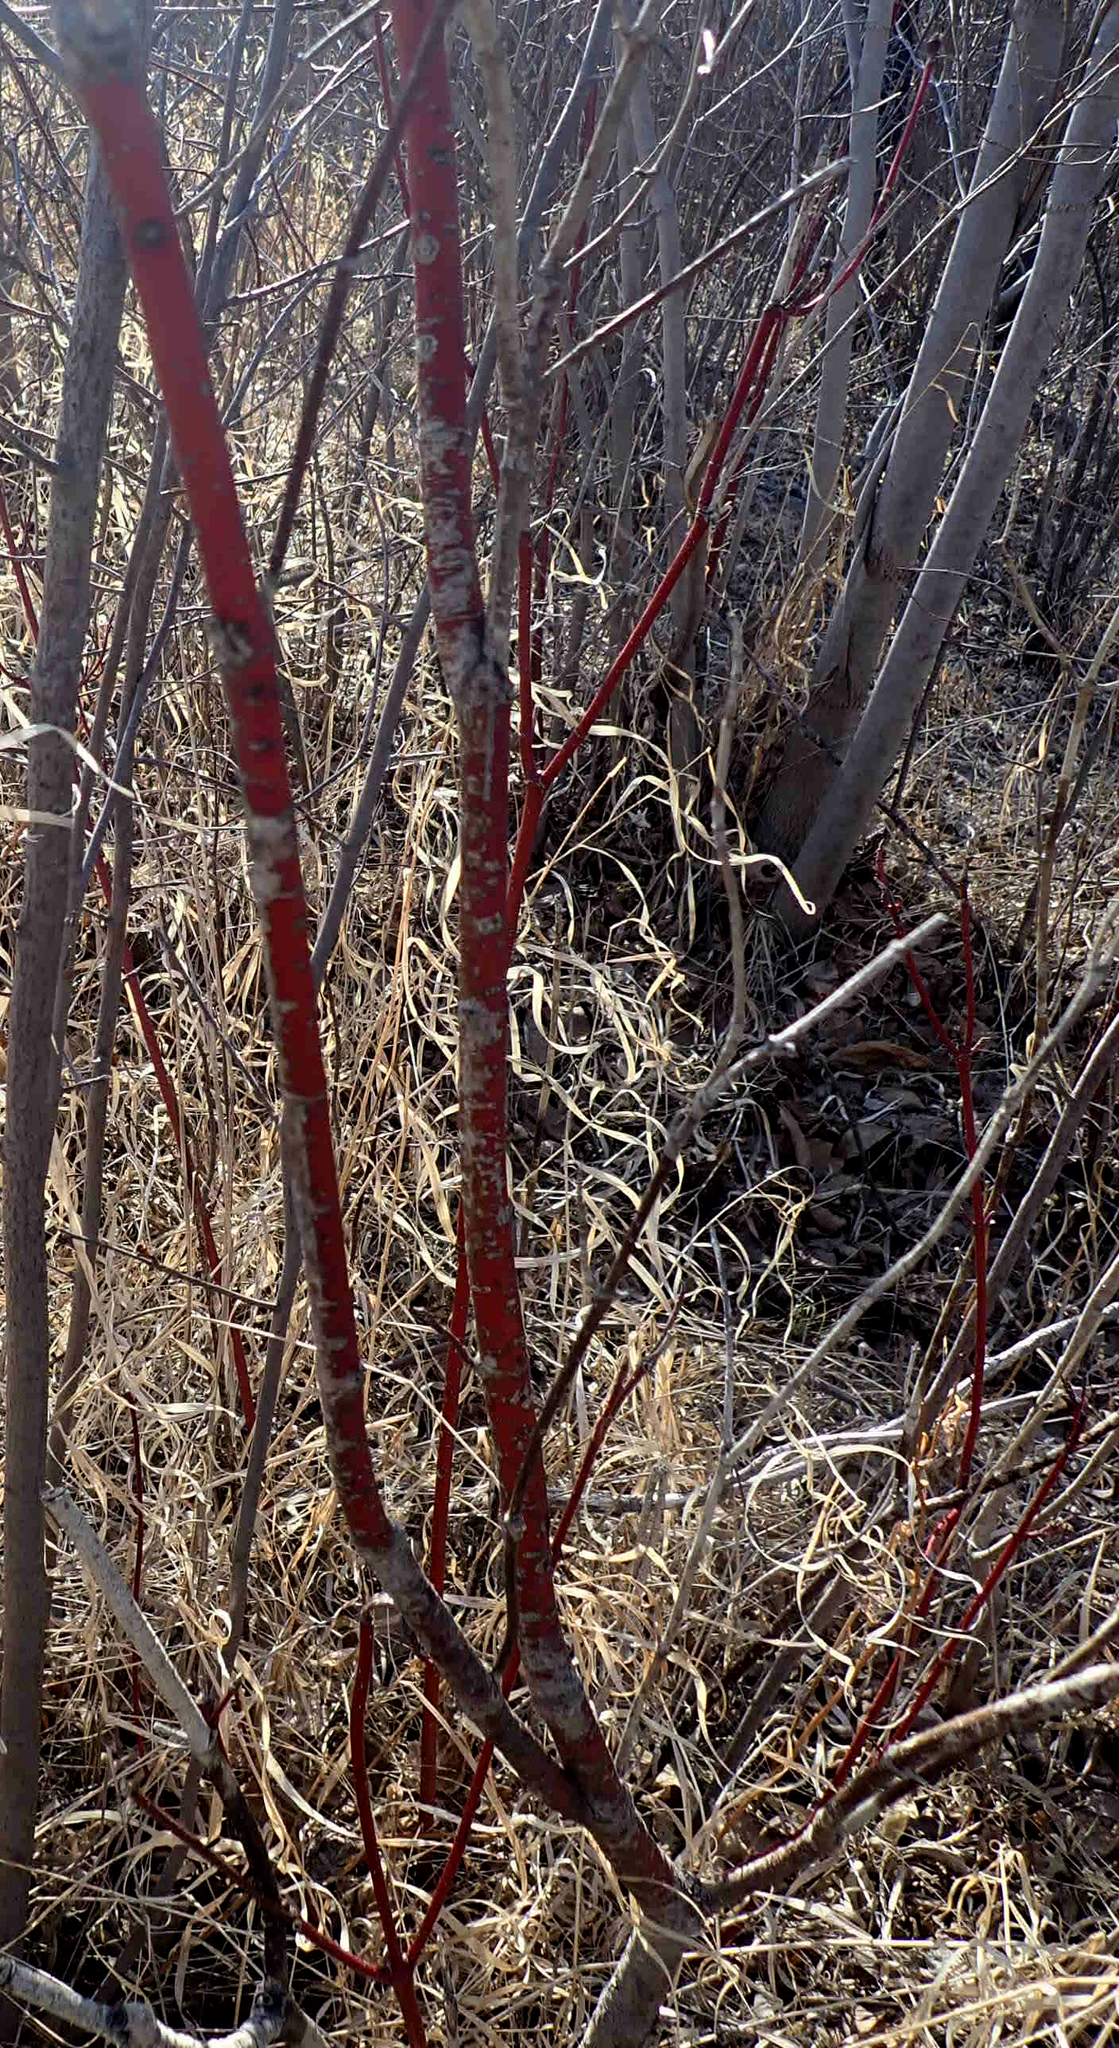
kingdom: Plantae
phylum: Tracheophyta
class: Magnoliopsida
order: Cornales
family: Cornaceae
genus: Cornus
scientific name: Cornus sericea
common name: Red-osier dogwood
